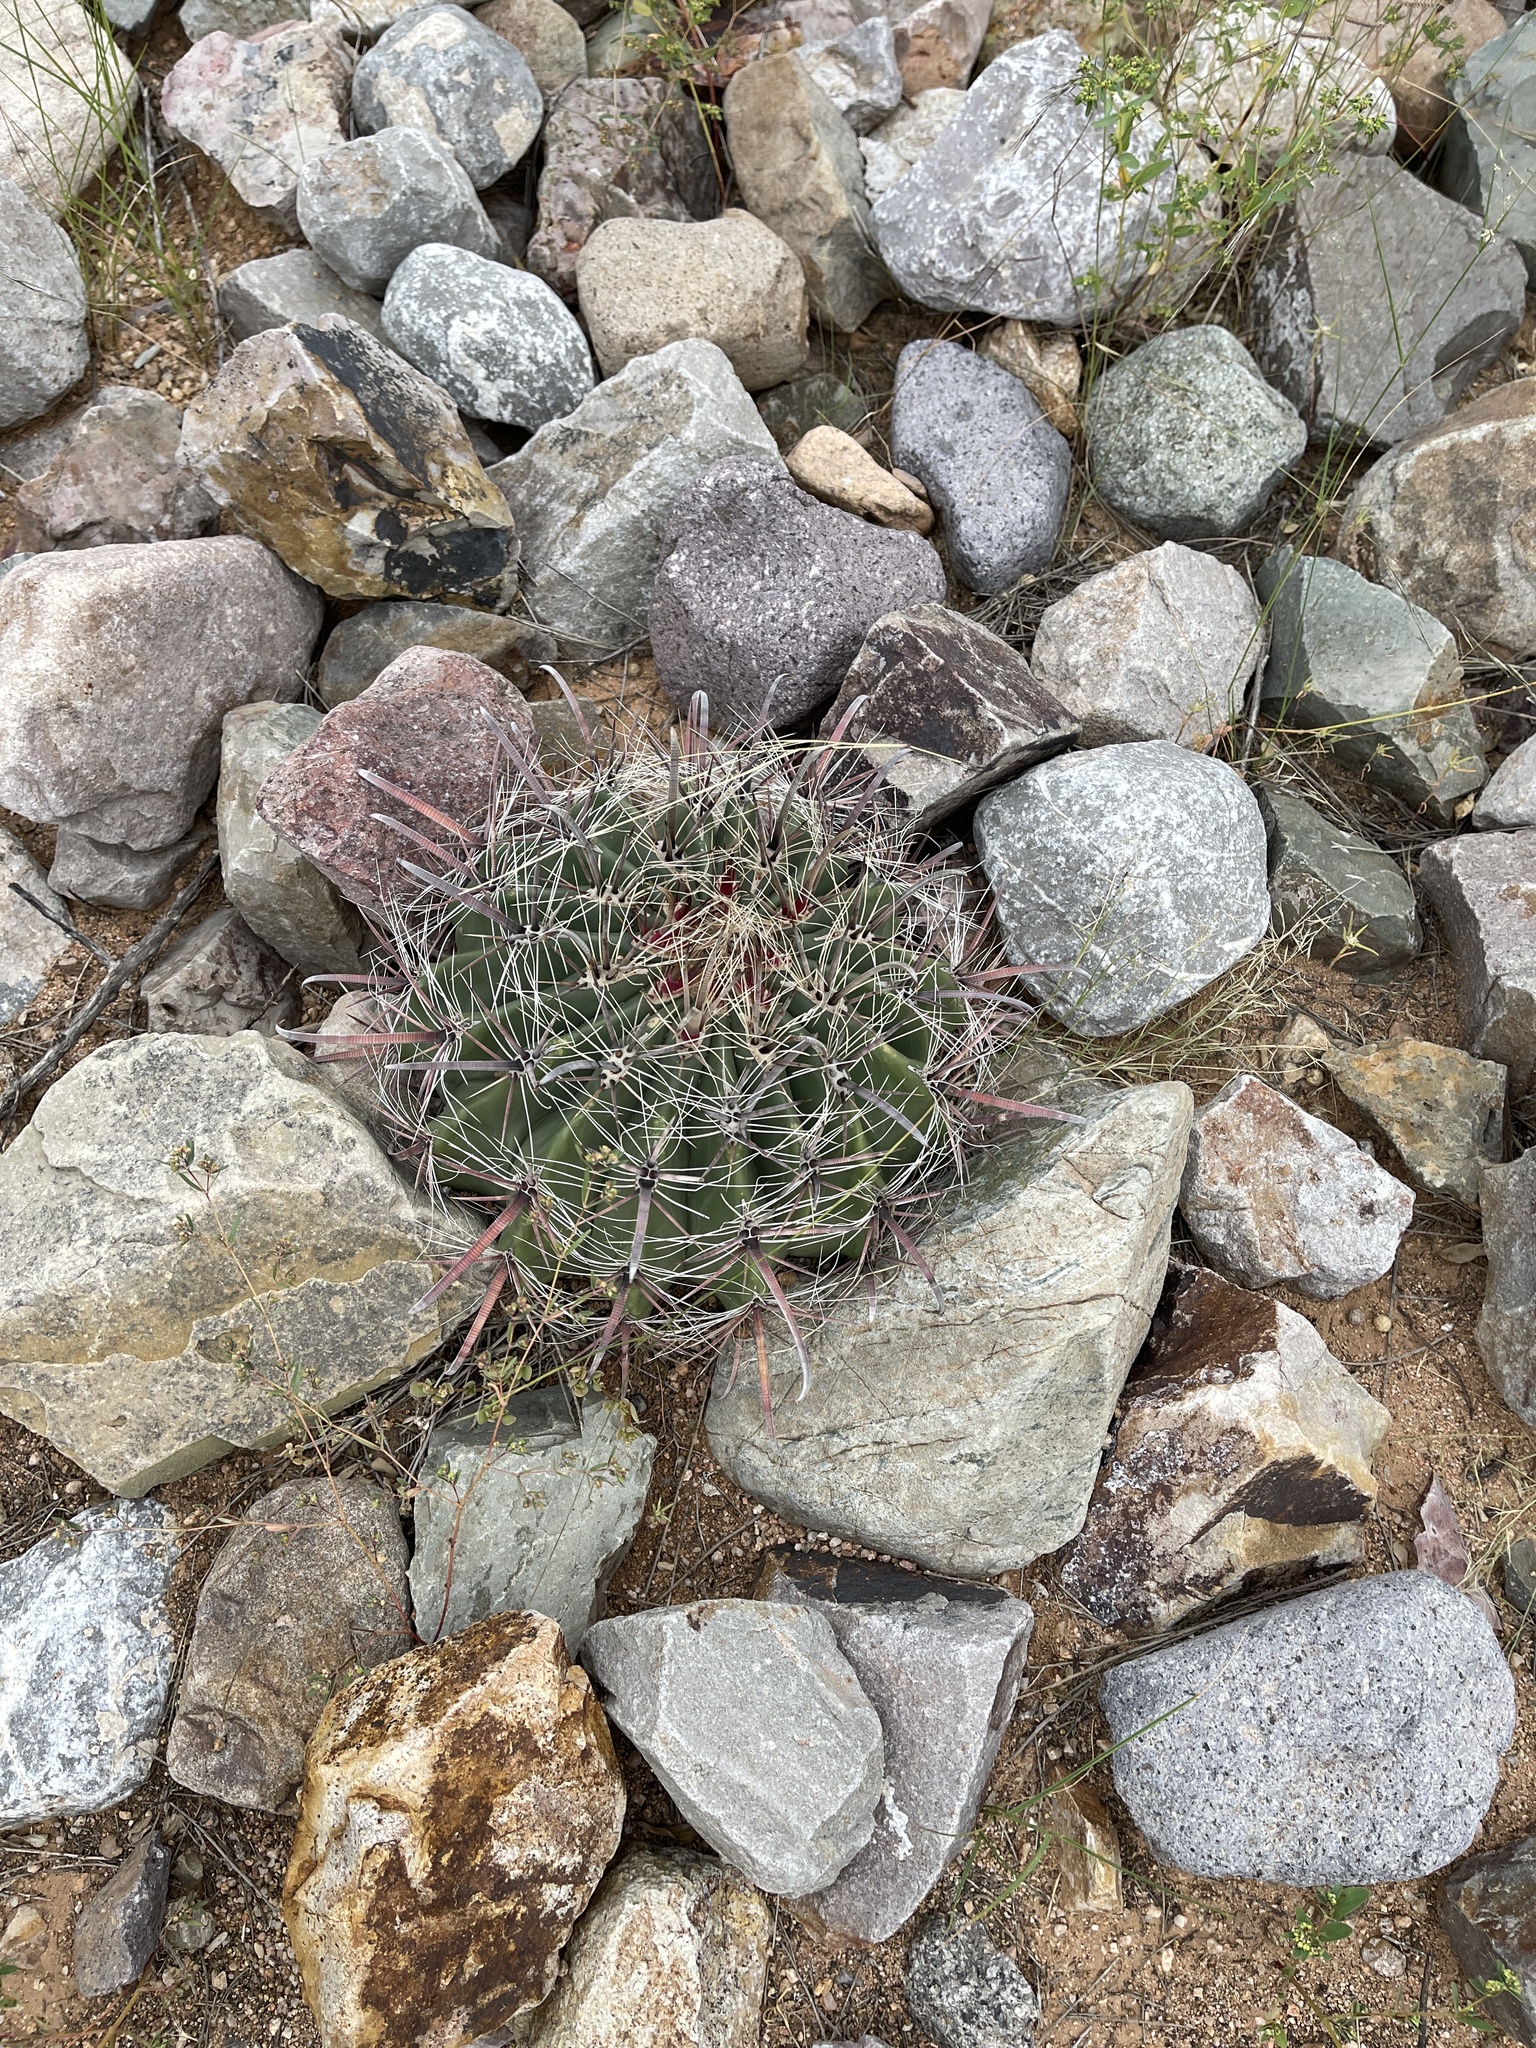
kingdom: Plantae
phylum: Tracheophyta
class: Magnoliopsida
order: Caryophyllales
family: Cactaceae
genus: Ferocactus
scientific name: Ferocactus wislizeni
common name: Candy barrel cactus
